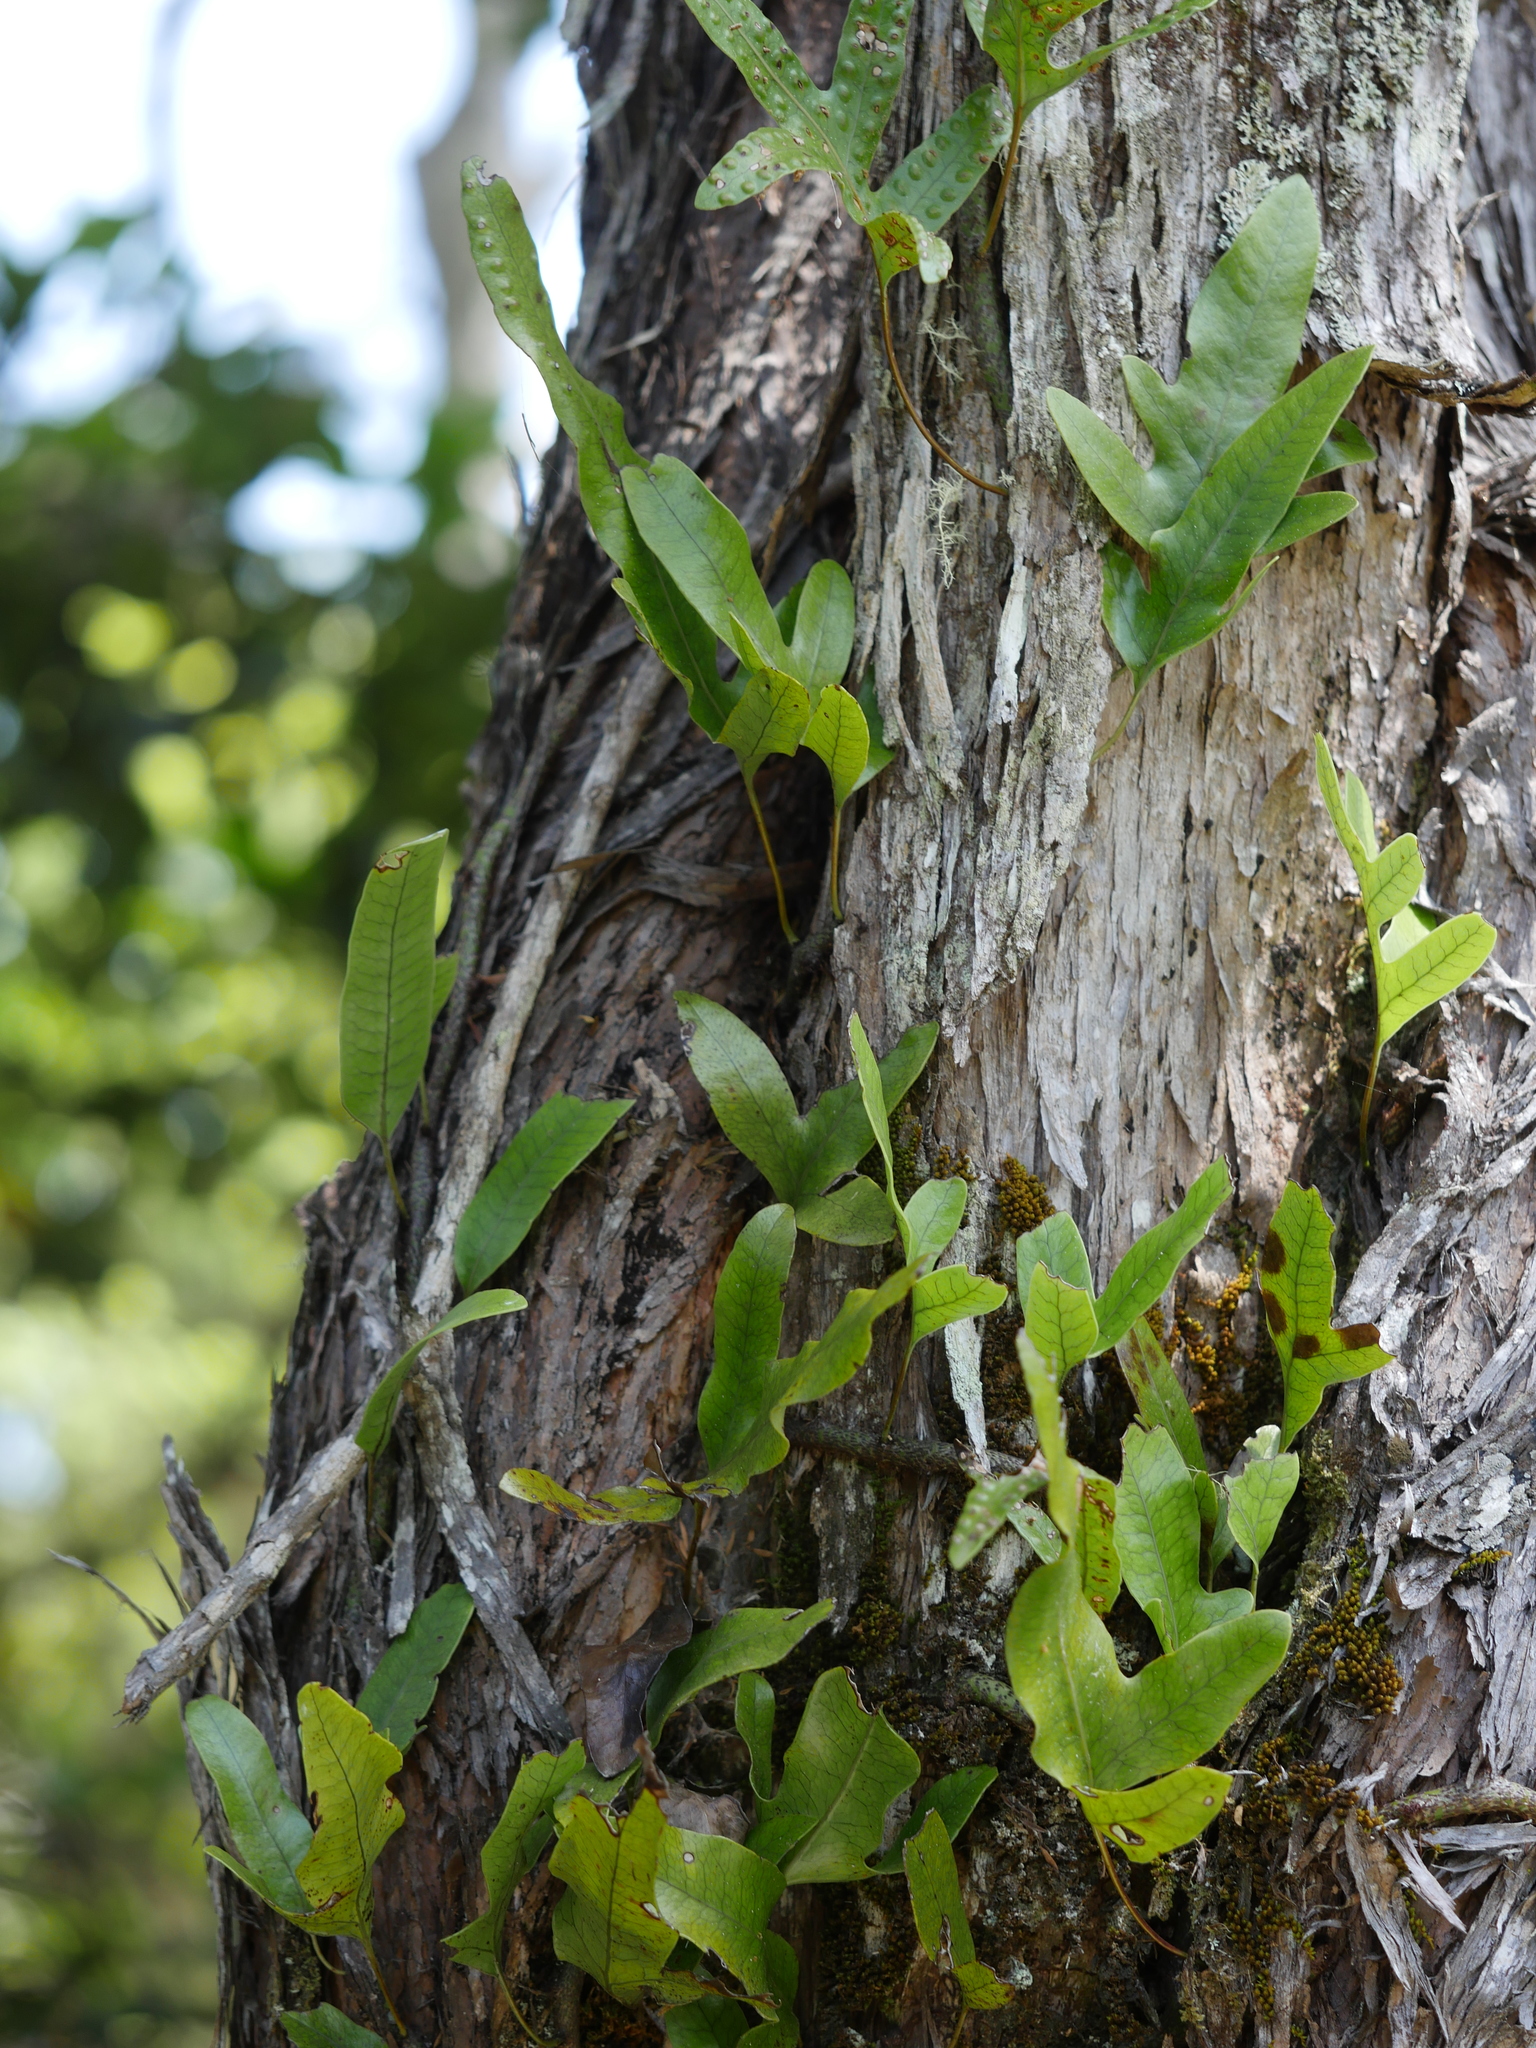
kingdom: Plantae
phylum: Tracheophyta
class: Polypodiopsida
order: Polypodiales
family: Polypodiaceae
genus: Lecanopteris
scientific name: Lecanopteris pustulata
